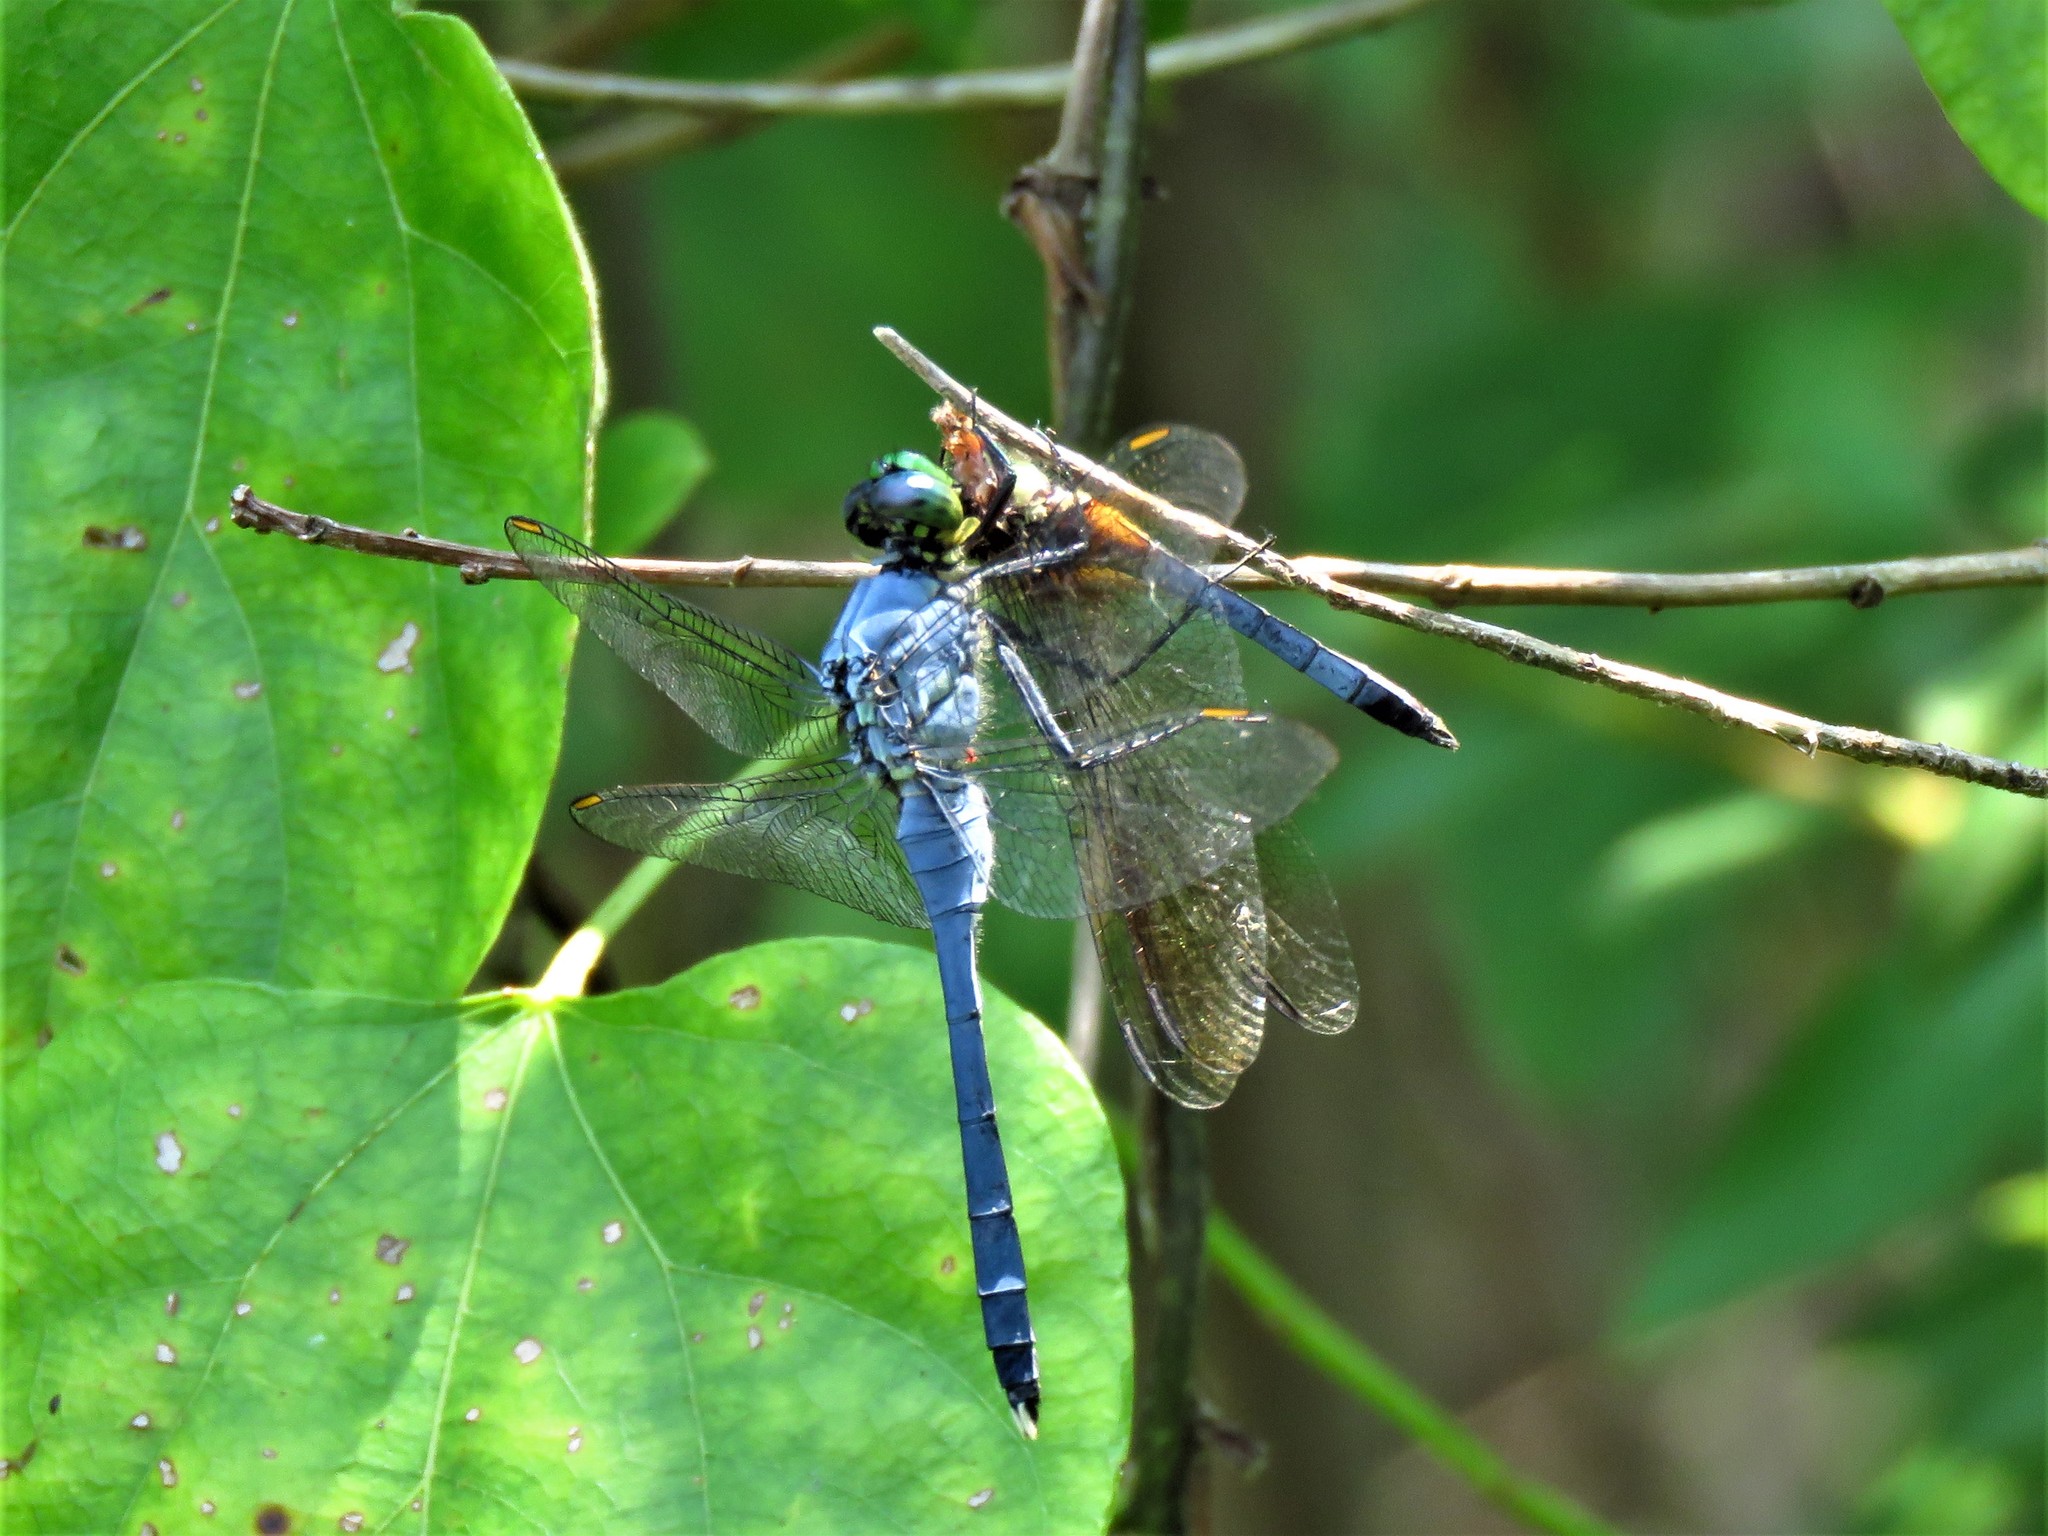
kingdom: Animalia
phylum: Arthropoda
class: Insecta
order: Odonata
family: Libellulidae
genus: Erythemis
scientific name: Erythemis simplicicollis
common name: Eastern pondhawk
